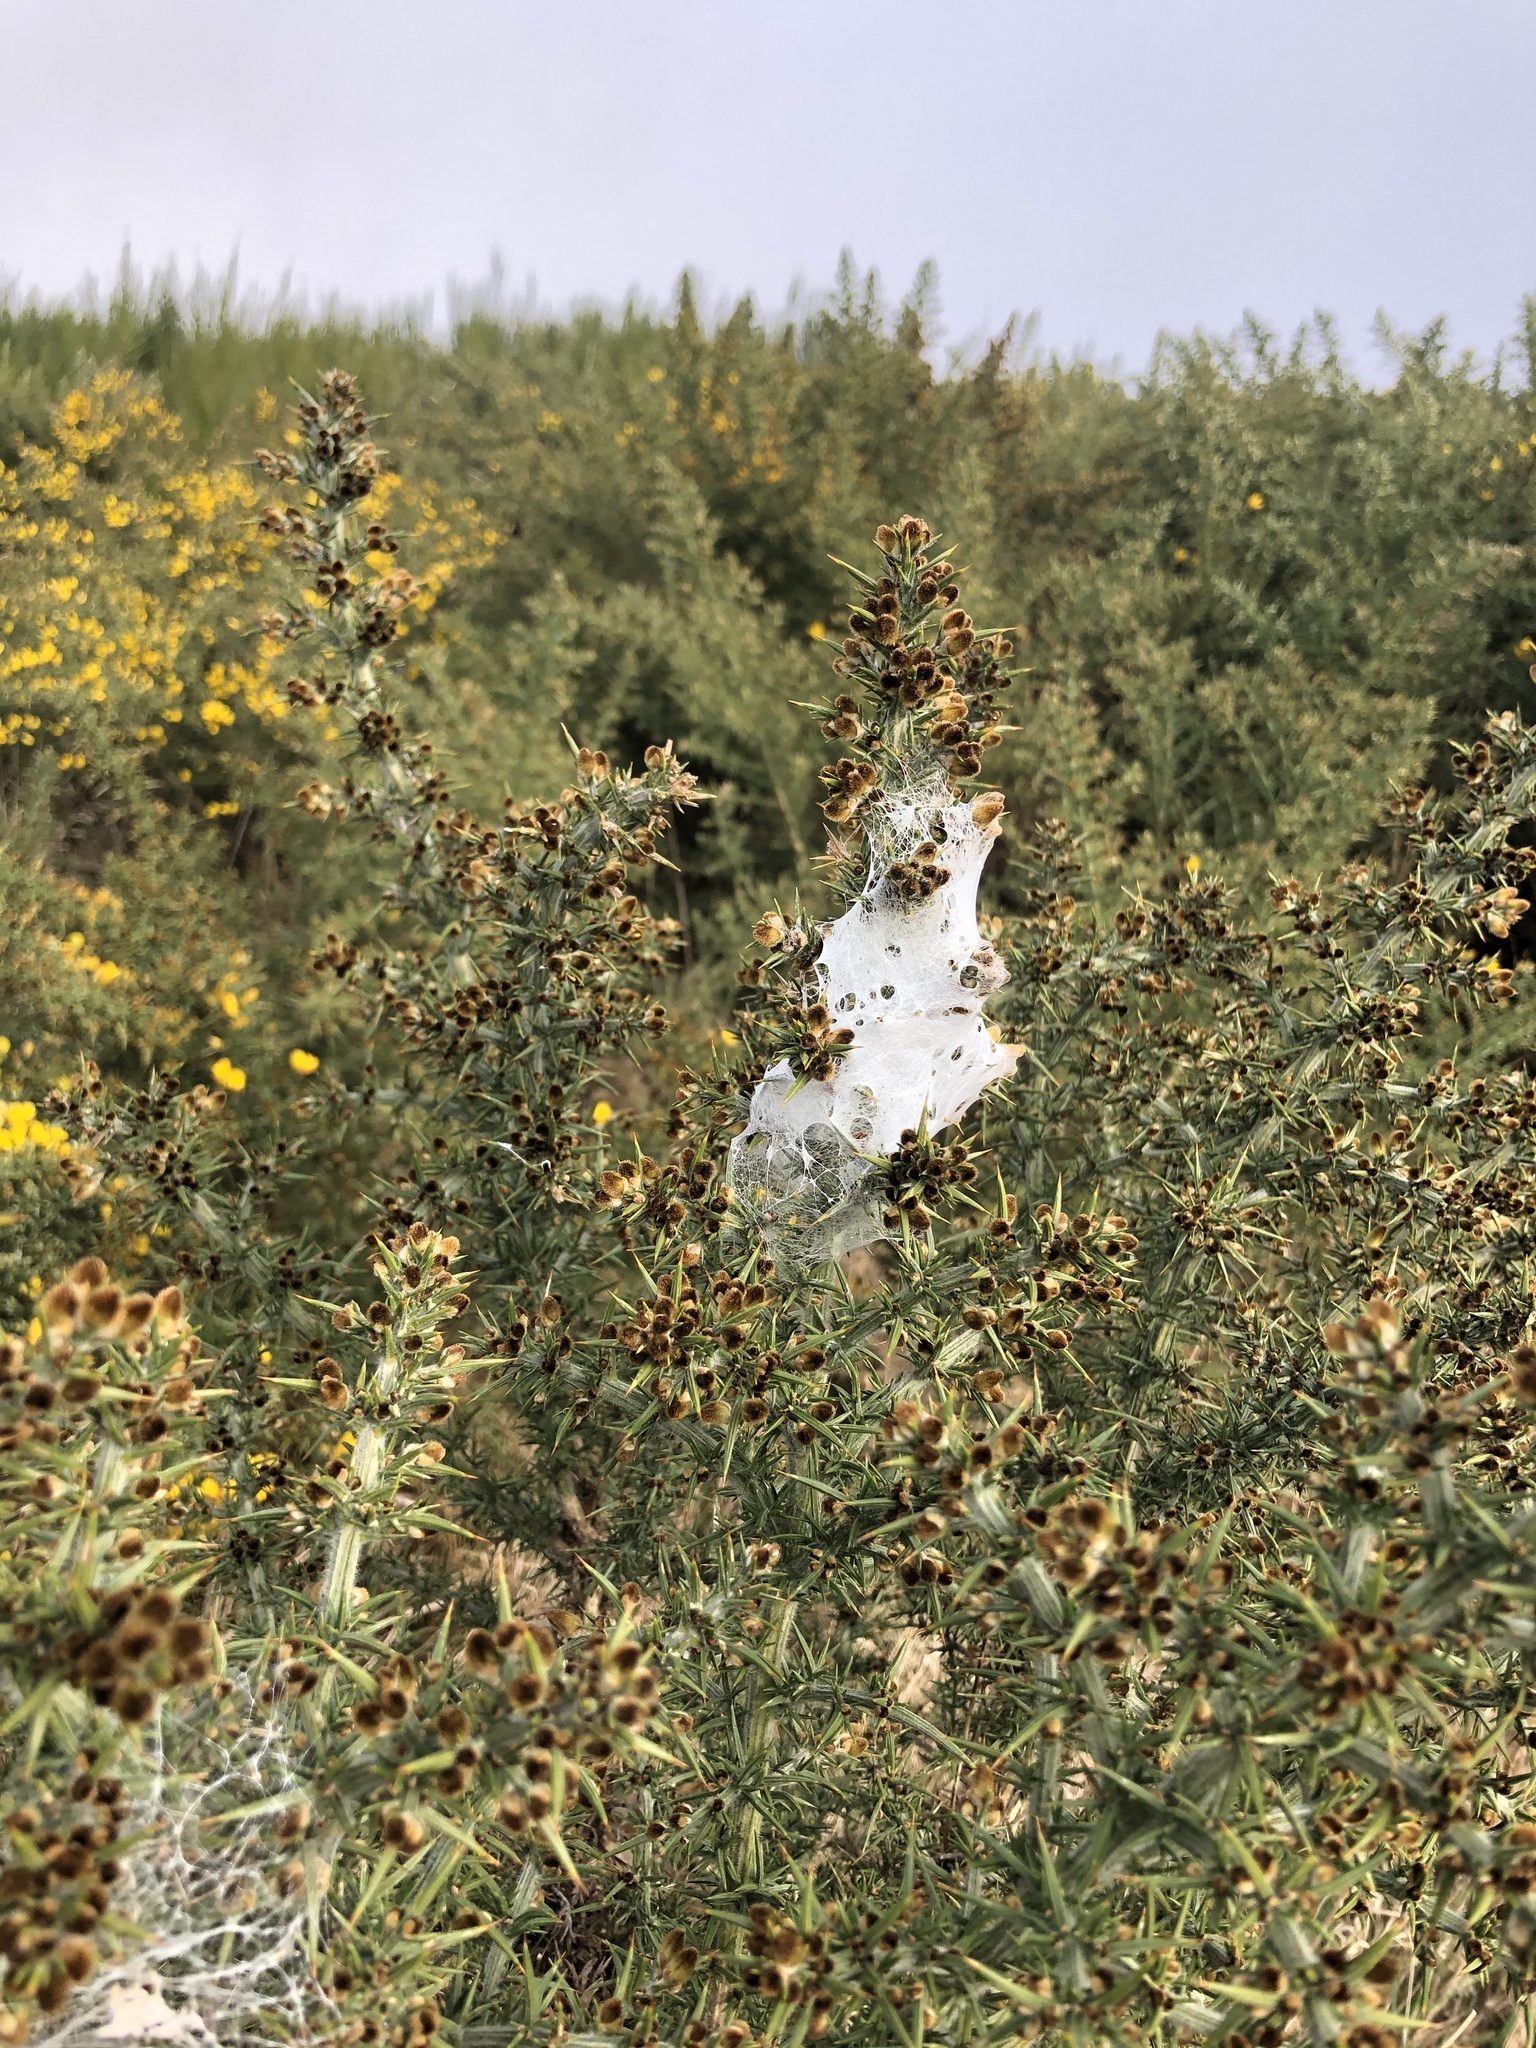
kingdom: Animalia
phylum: Arthropoda
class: Arachnida
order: Araneae
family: Pisauridae
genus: Dolomedes
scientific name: Dolomedes minor
